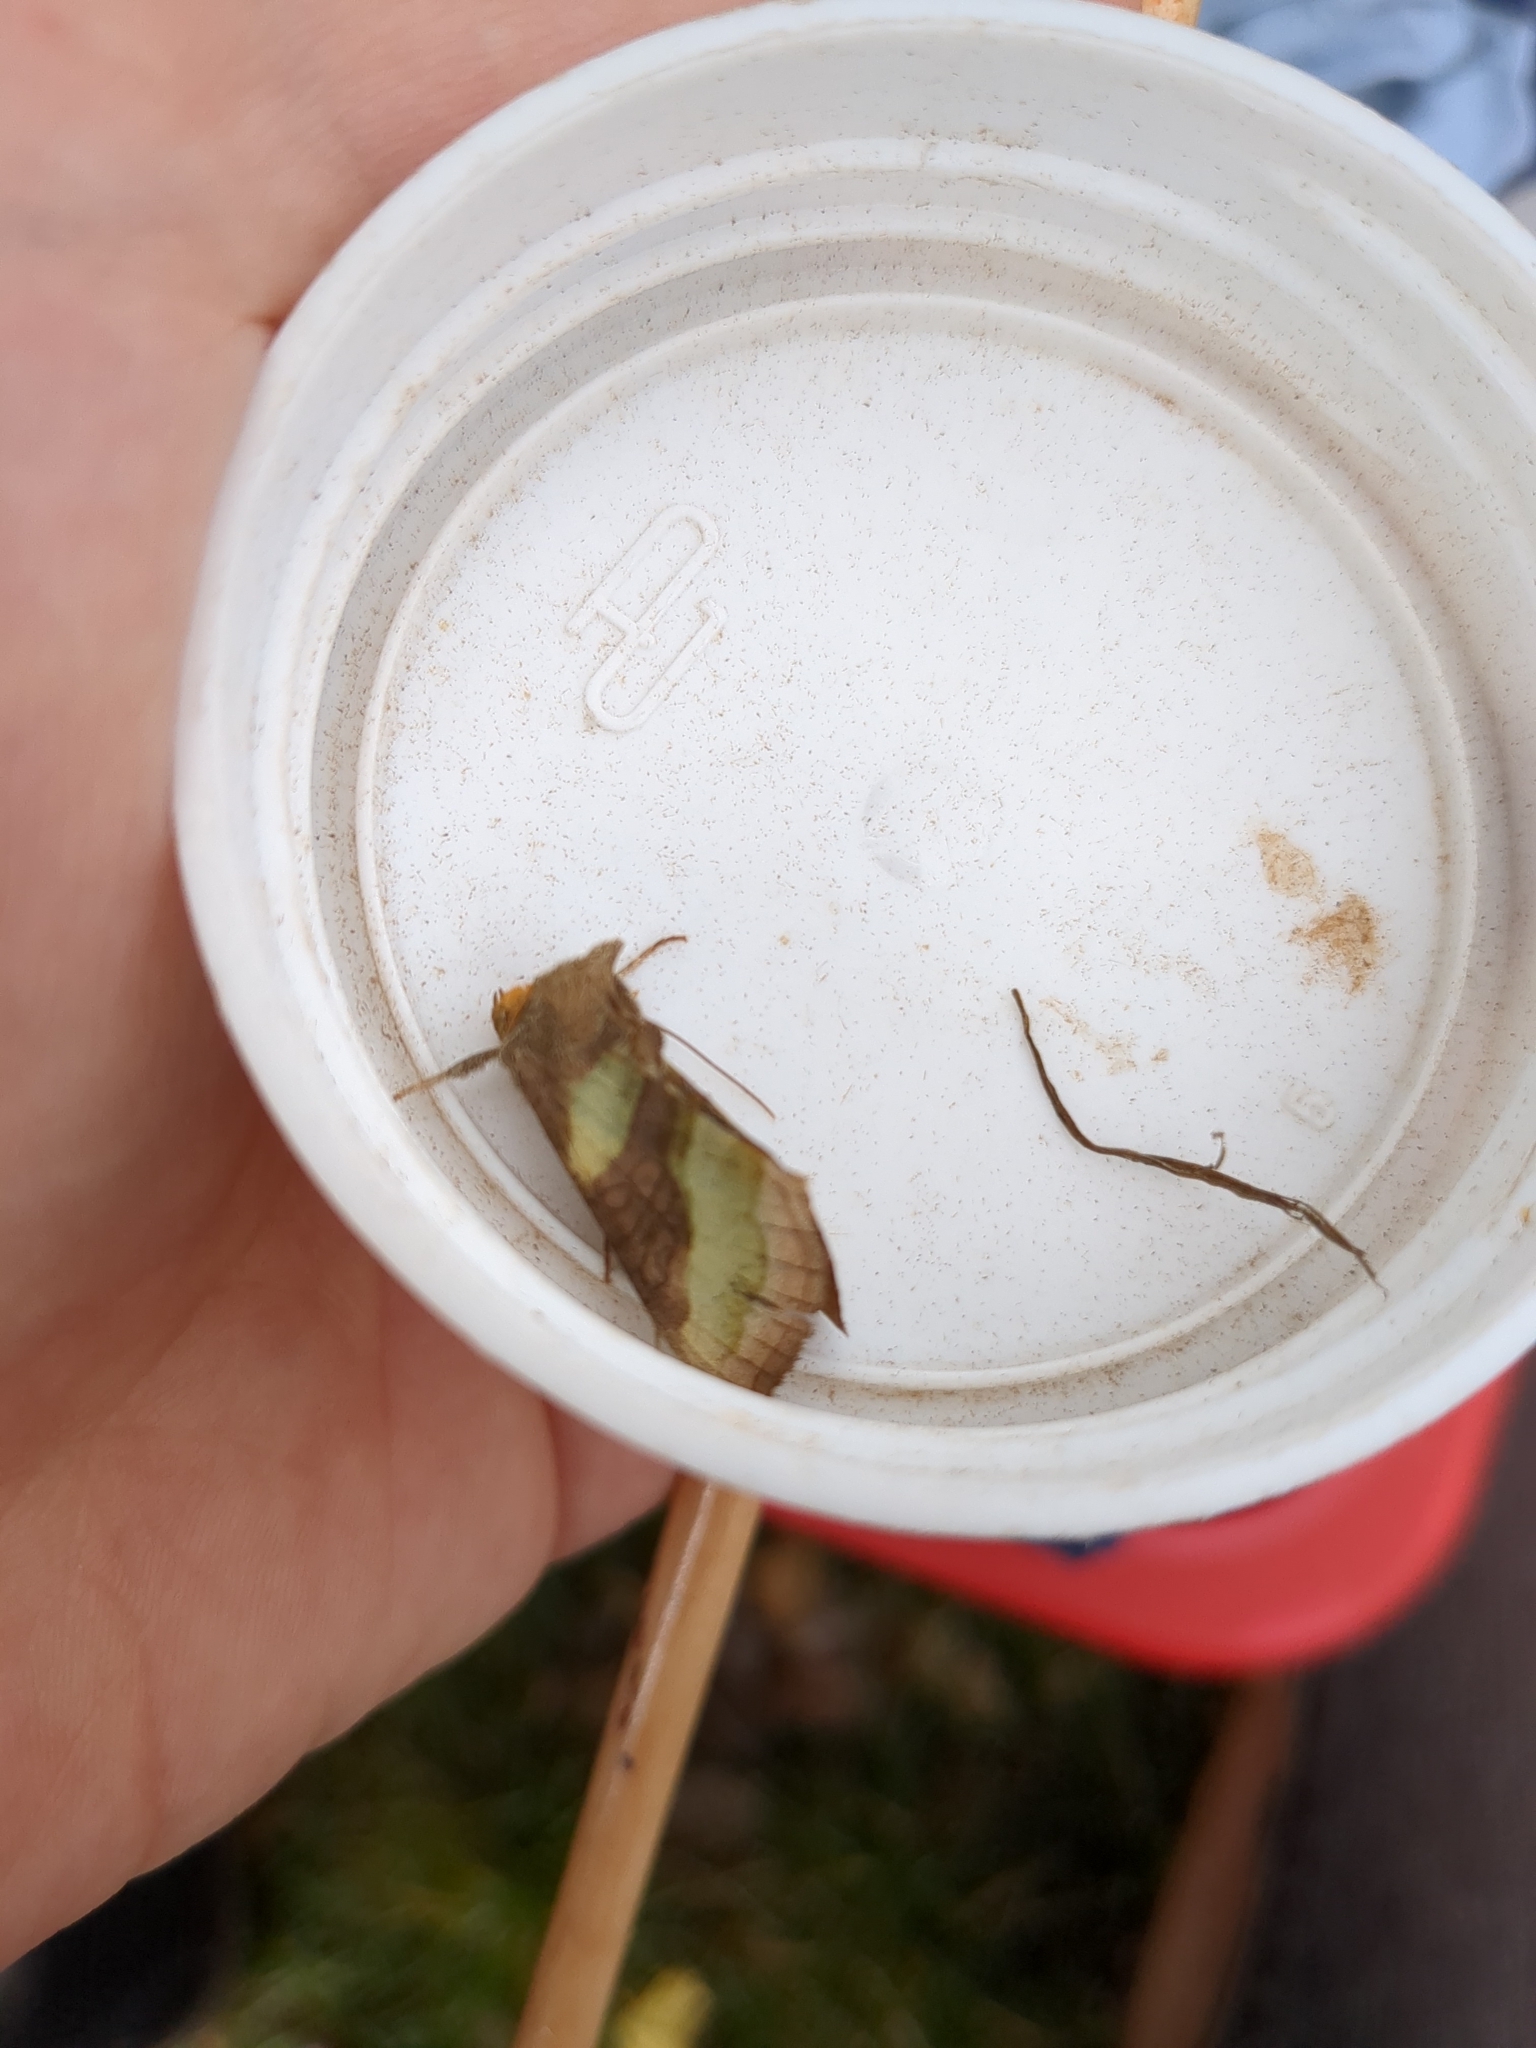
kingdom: Animalia
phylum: Arthropoda
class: Insecta
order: Lepidoptera
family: Noctuidae
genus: Diachrysia
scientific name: Diachrysia chrysitis
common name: Burnished brass
